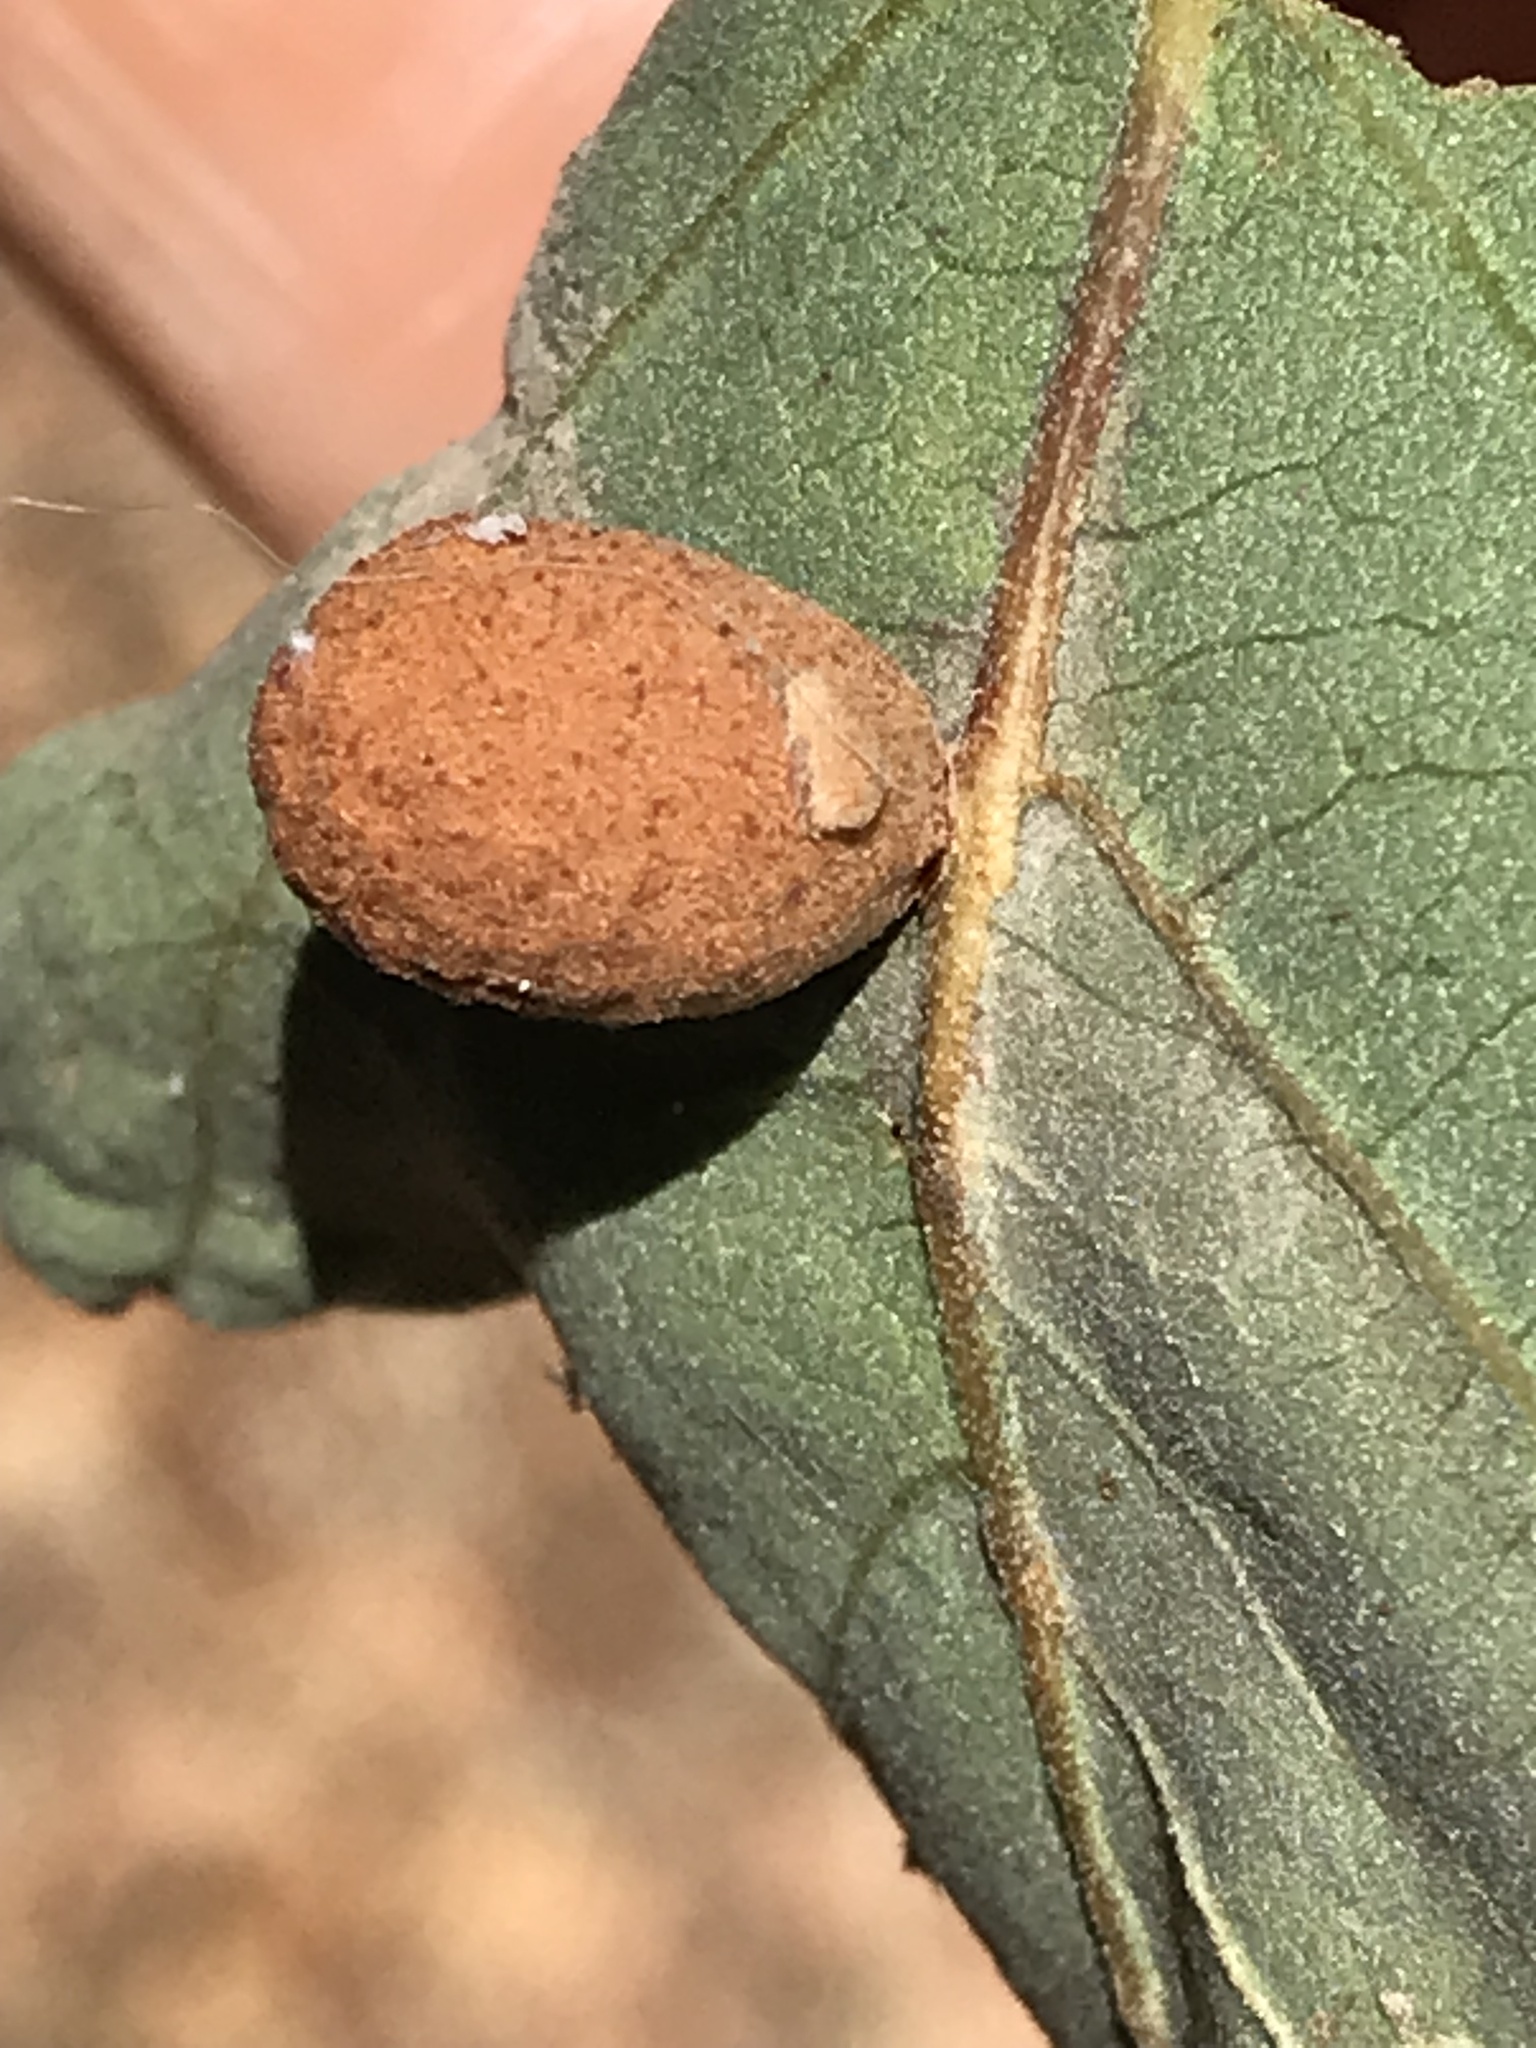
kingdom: Animalia
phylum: Arthropoda
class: Insecta
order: Hymenoptera
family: Cynipidae
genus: Cynips
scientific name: Cynips conspicua
